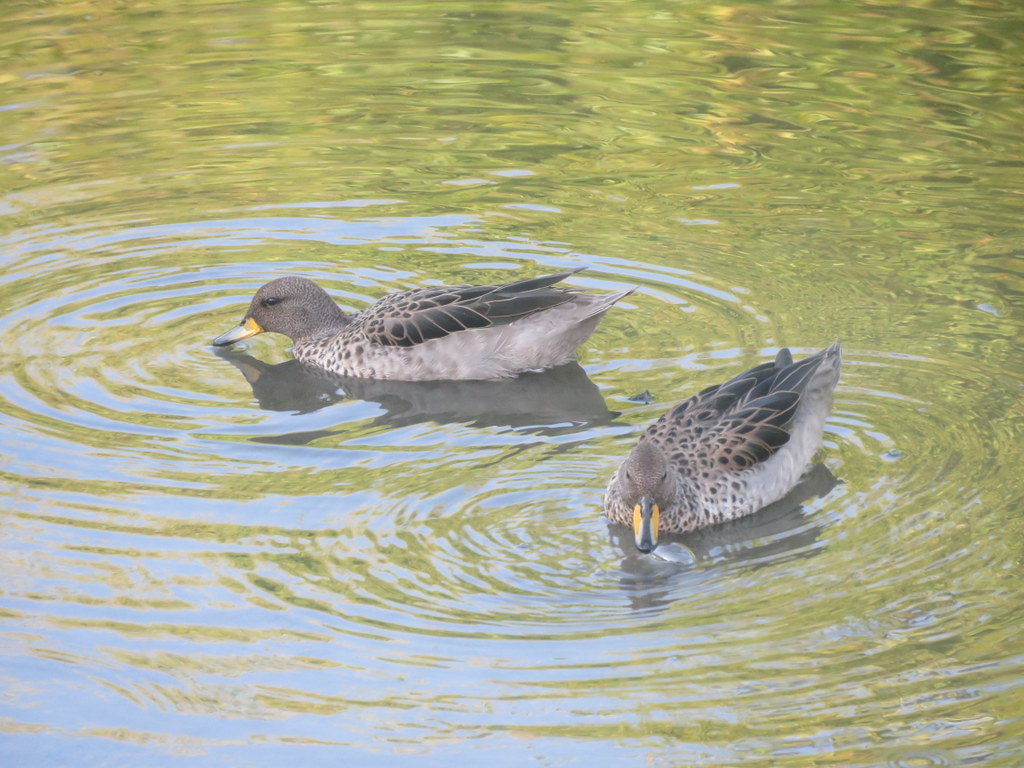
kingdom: Animalia
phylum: Chordata
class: Aves
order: Anseriformes
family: Anatidae
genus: Anas
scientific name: Anas flavirostris
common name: Yellow-billed teal
